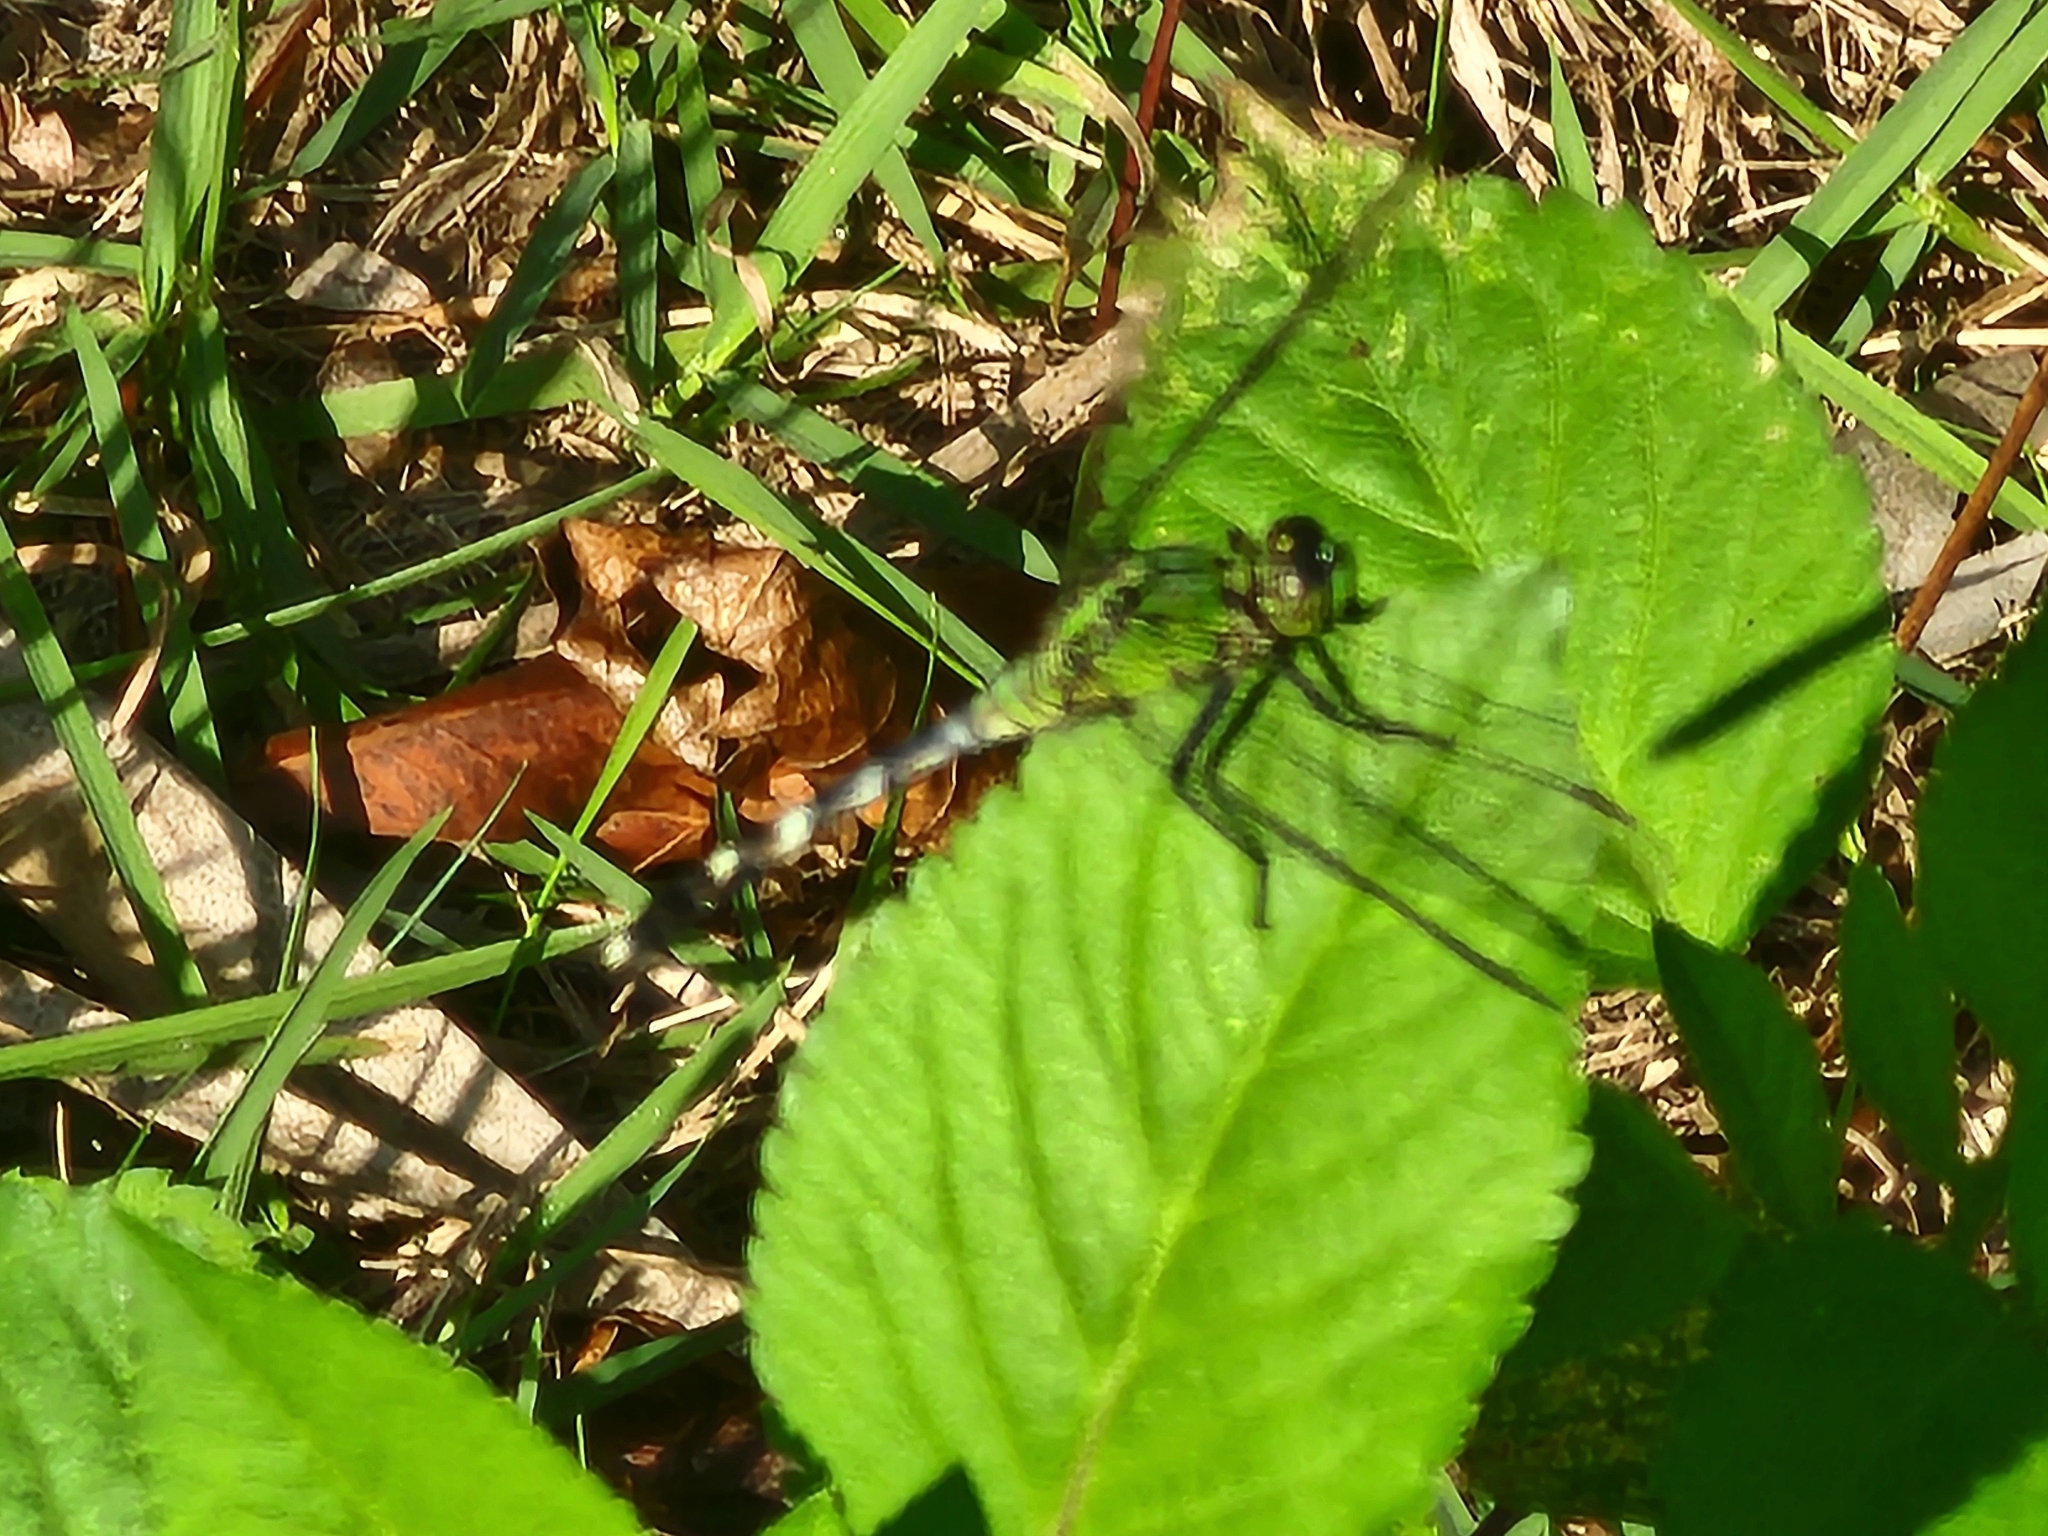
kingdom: Animalia
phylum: Arthropoda
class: Insecta
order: Odonata
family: Libellulidae
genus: Erythemis
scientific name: Erythemis simplicicollis
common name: Eastern pondhawk
